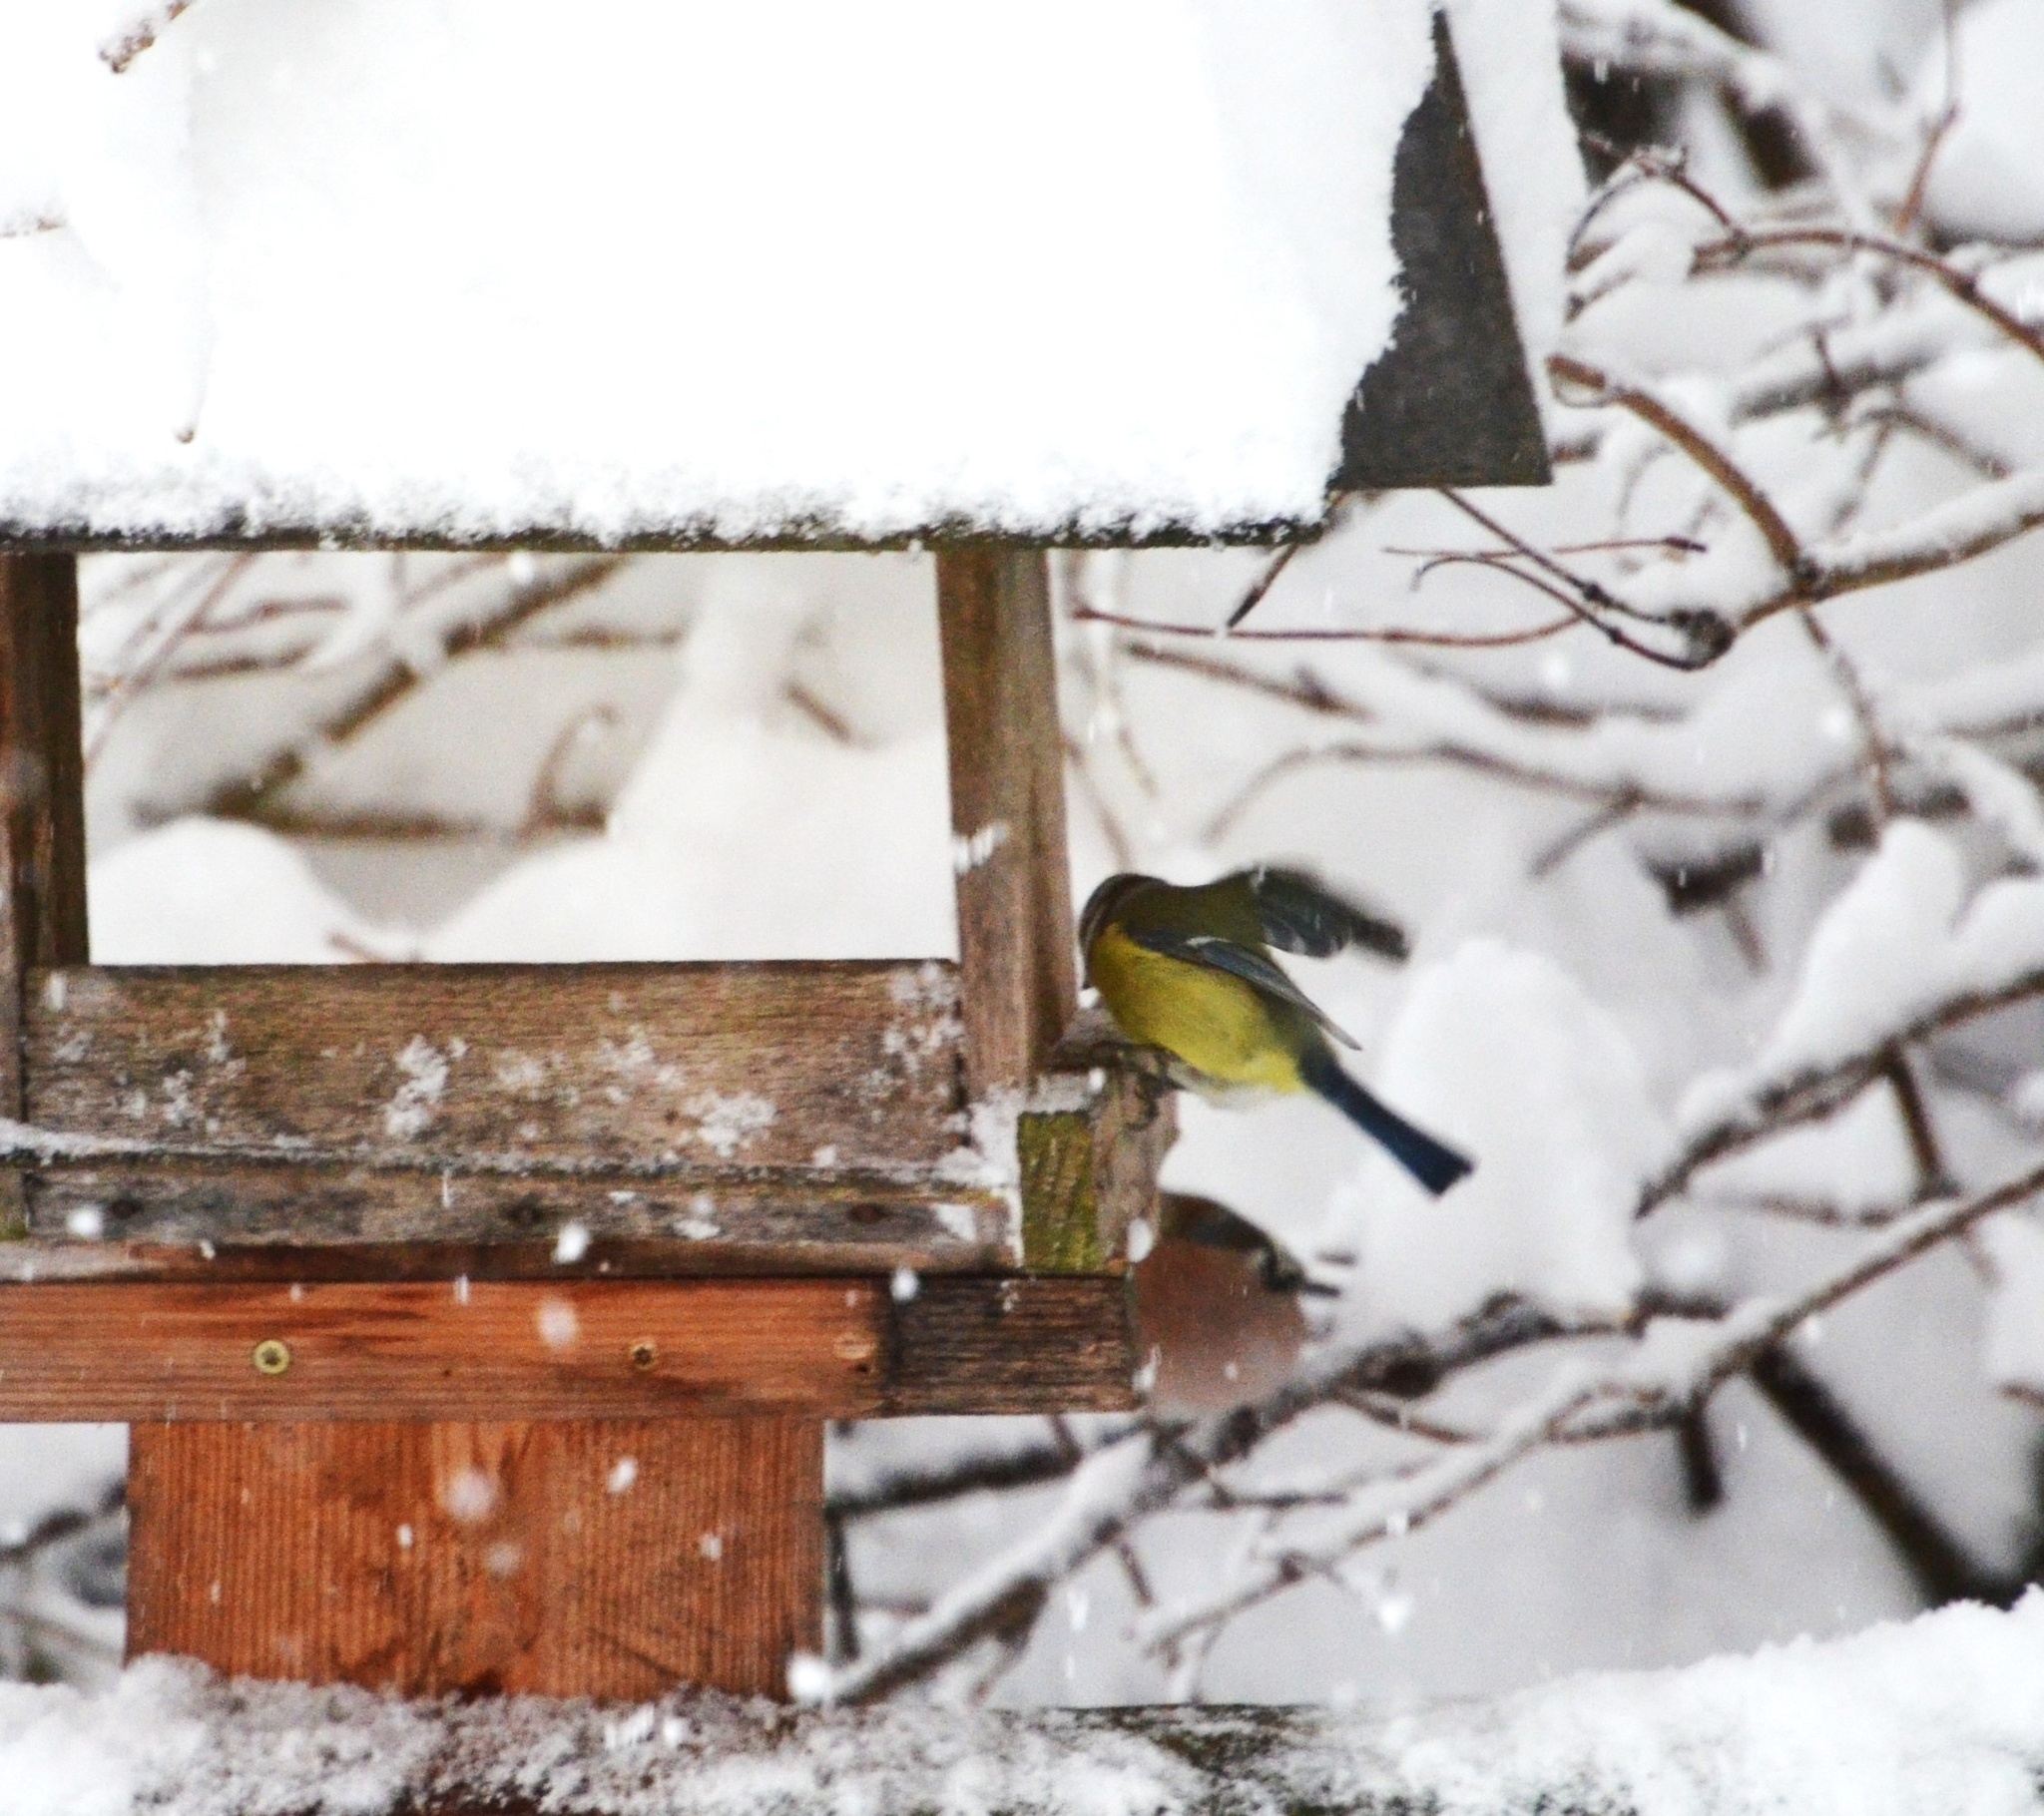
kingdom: Animalia
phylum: Chordata
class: Aves
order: Passeriformes
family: Paridae
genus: Cyanistes
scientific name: Cyanistes caeruleus
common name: Eurasian blue tit
